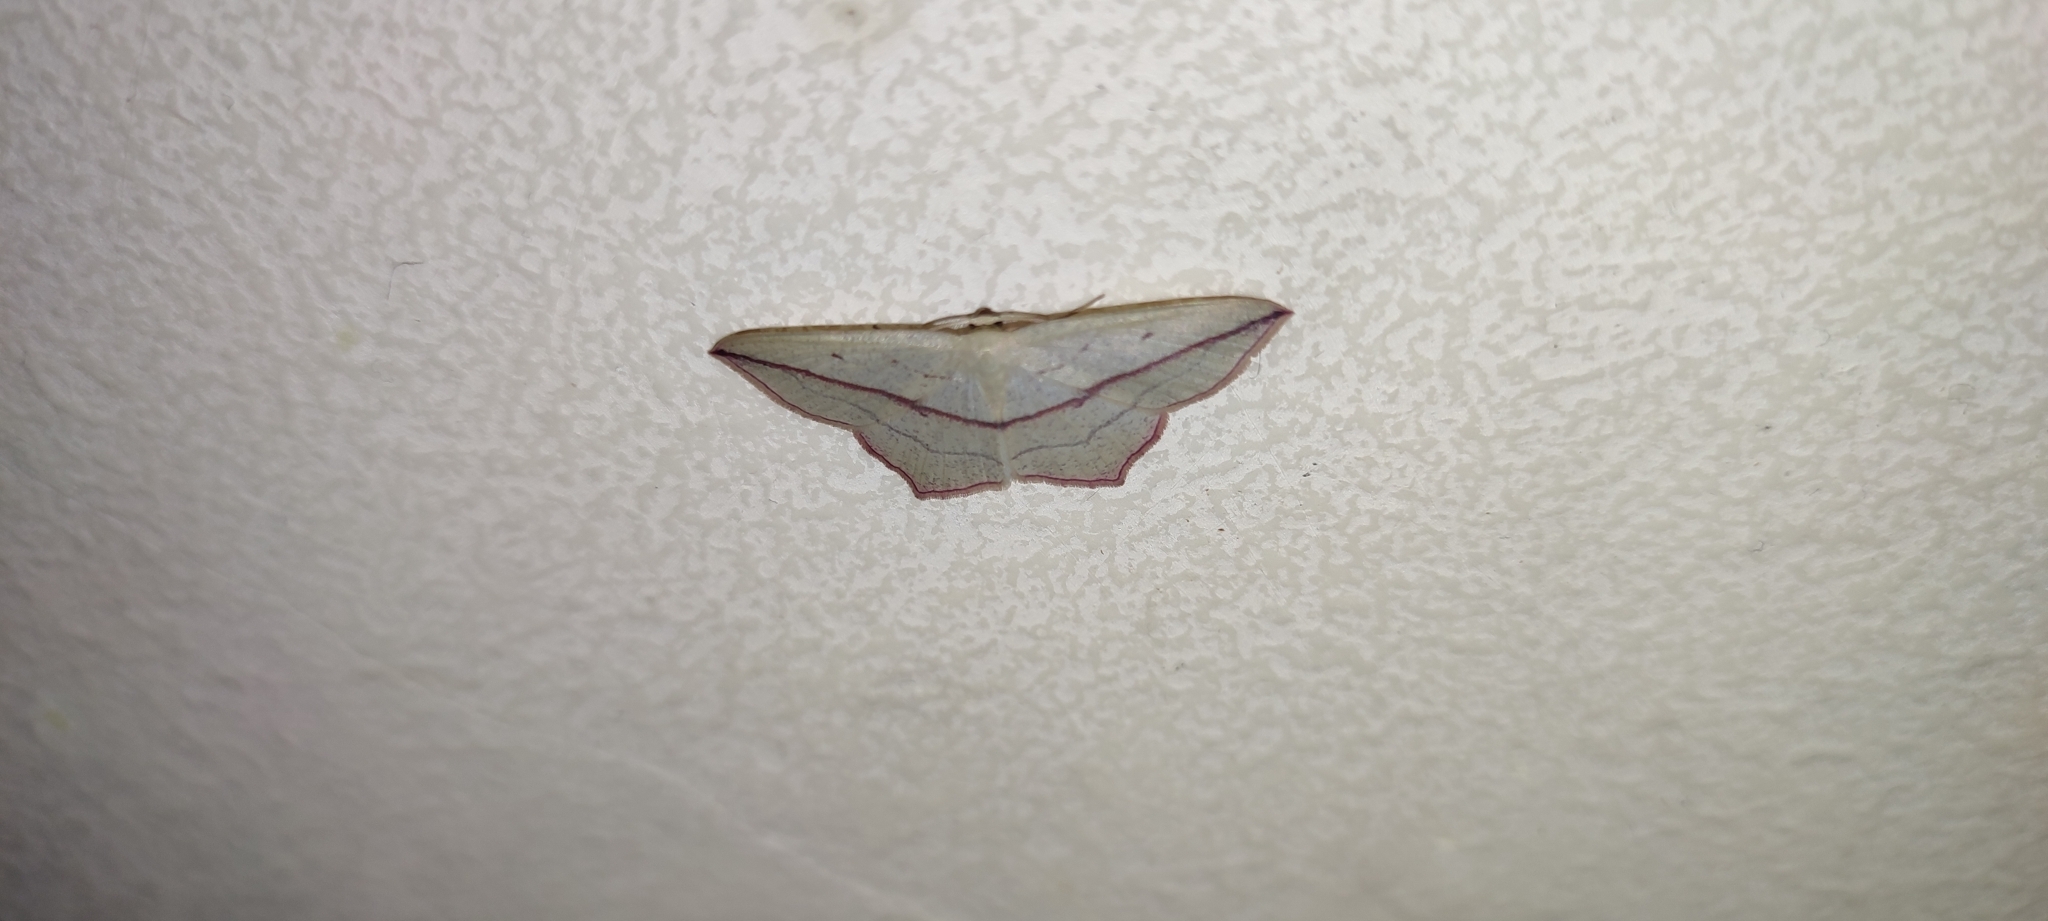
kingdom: Animalia
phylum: Arthropoda
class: Insecta
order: Lepidoptera
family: Geometridae
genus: Timandra
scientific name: Timandra comae
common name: Blood-vein
